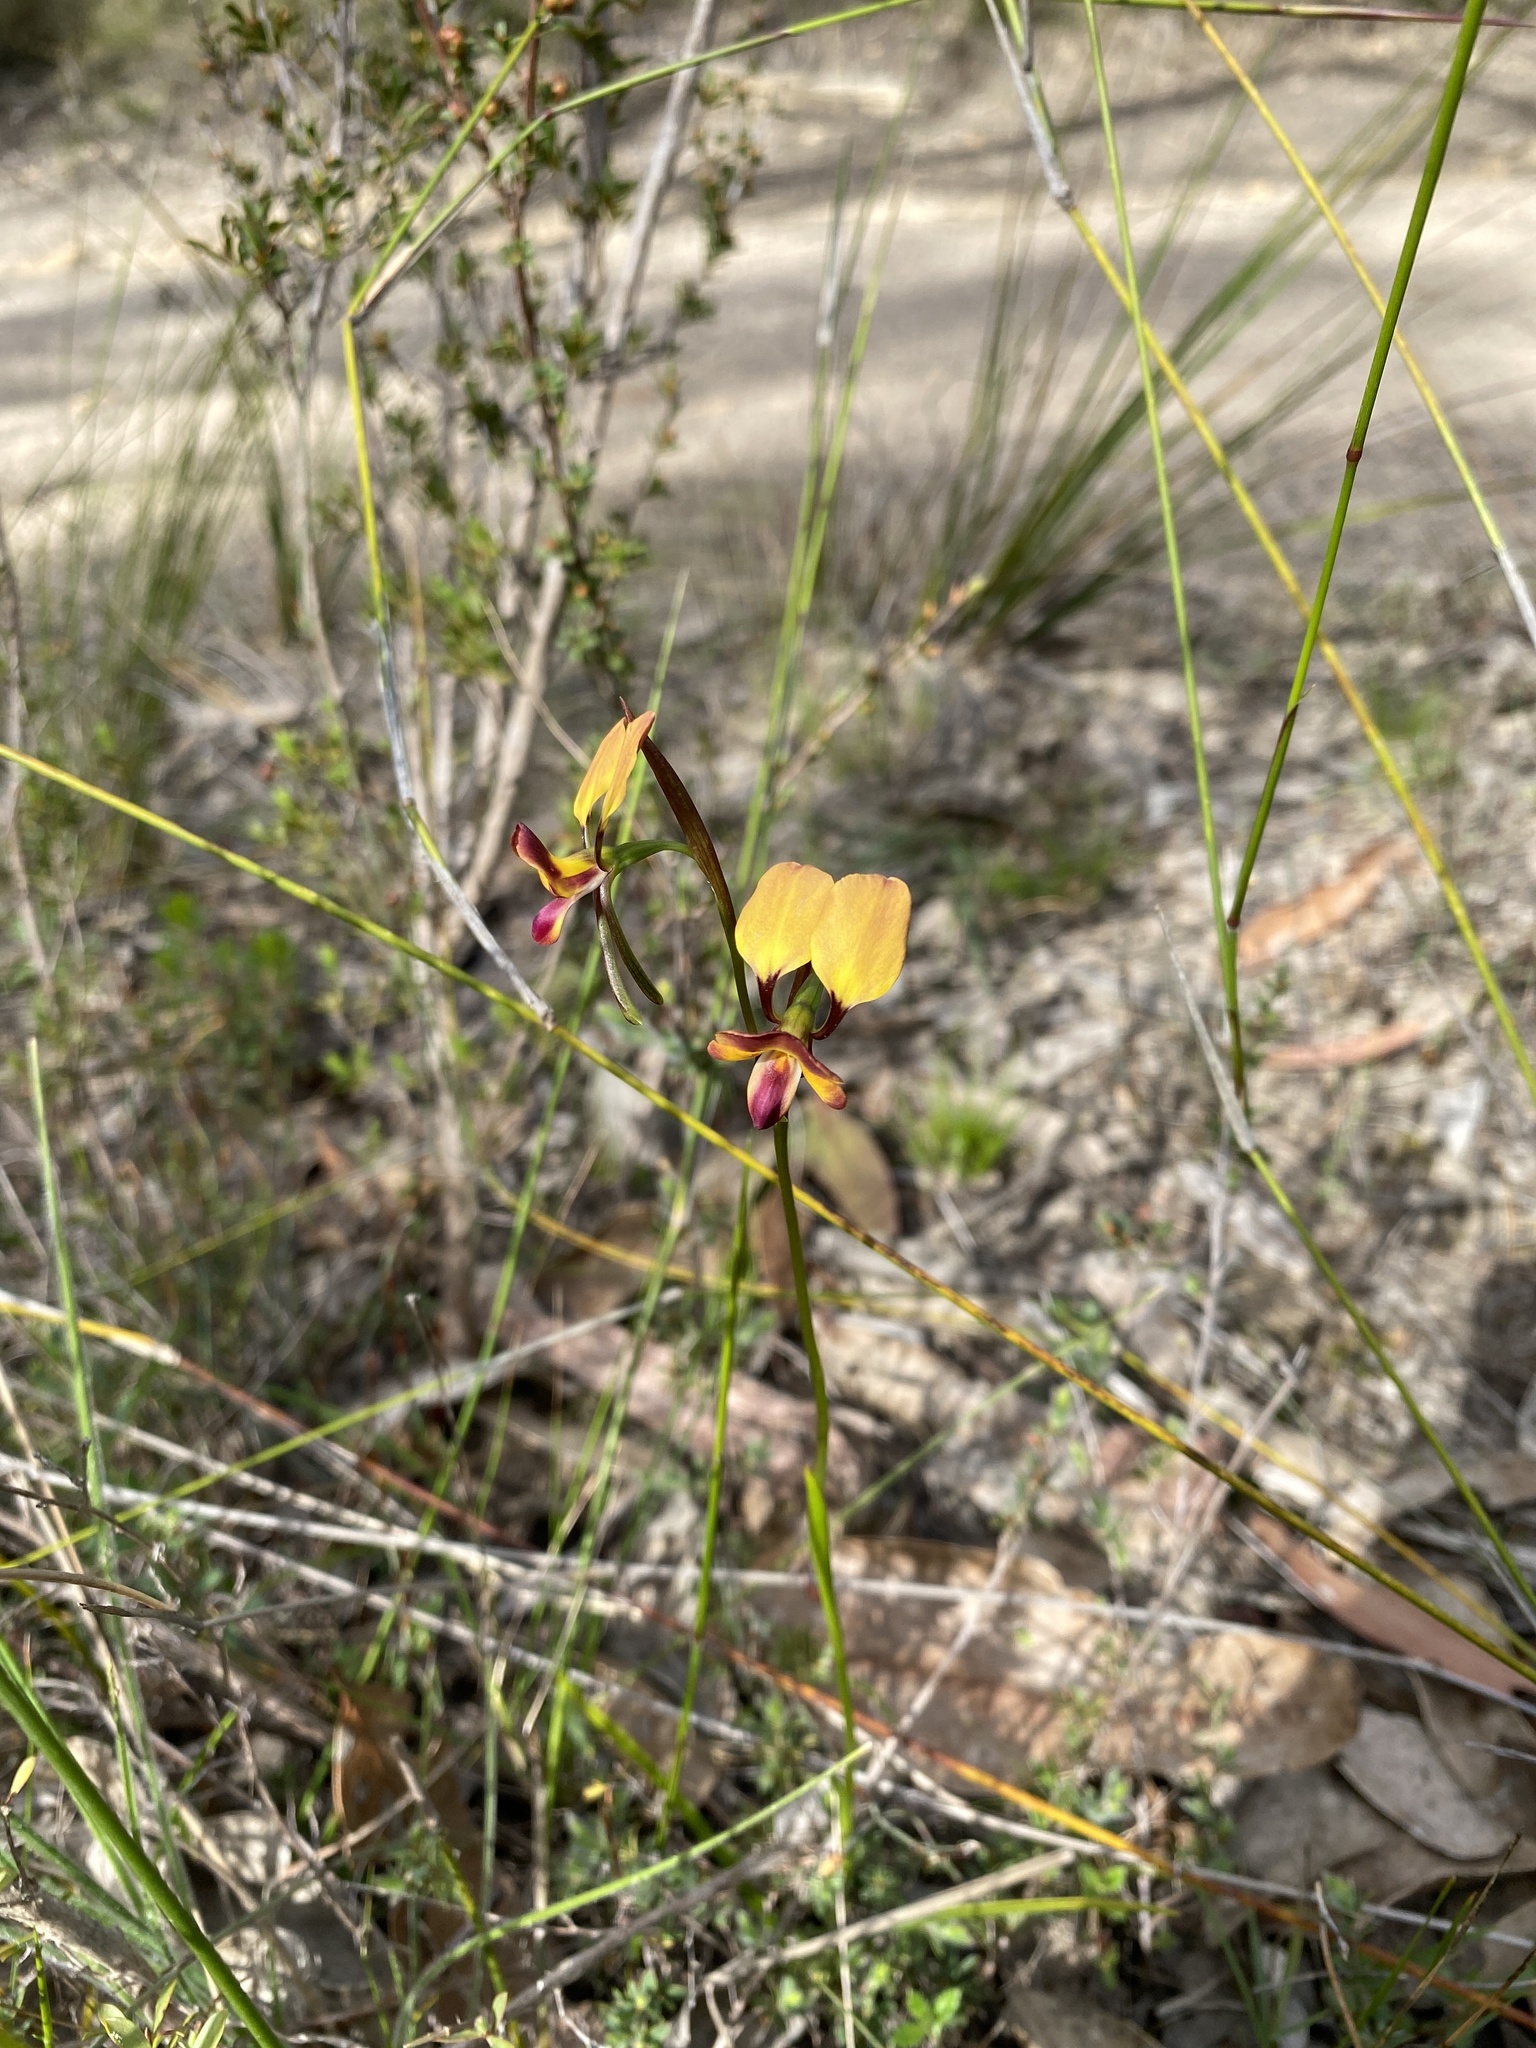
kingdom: Plantae
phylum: Tracheophyta
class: Liliopsida
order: Asparagales
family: Orchidaceae
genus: Diuris
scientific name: Diuris orientis
